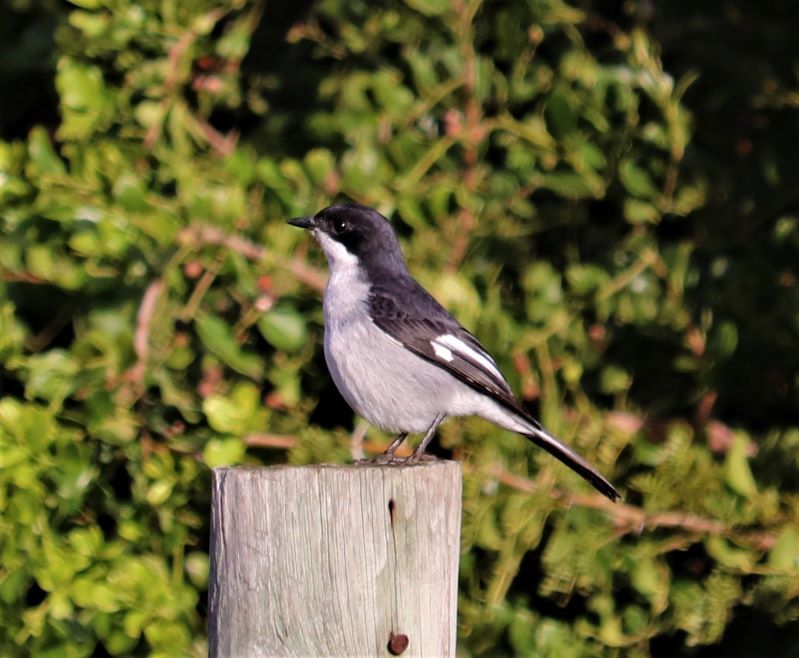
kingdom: Animalia
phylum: Chordata
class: Aves
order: Passeriformes
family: Muscicapidae
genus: Sigelus
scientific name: Sigelus silens
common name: Fiscal flycatcher
